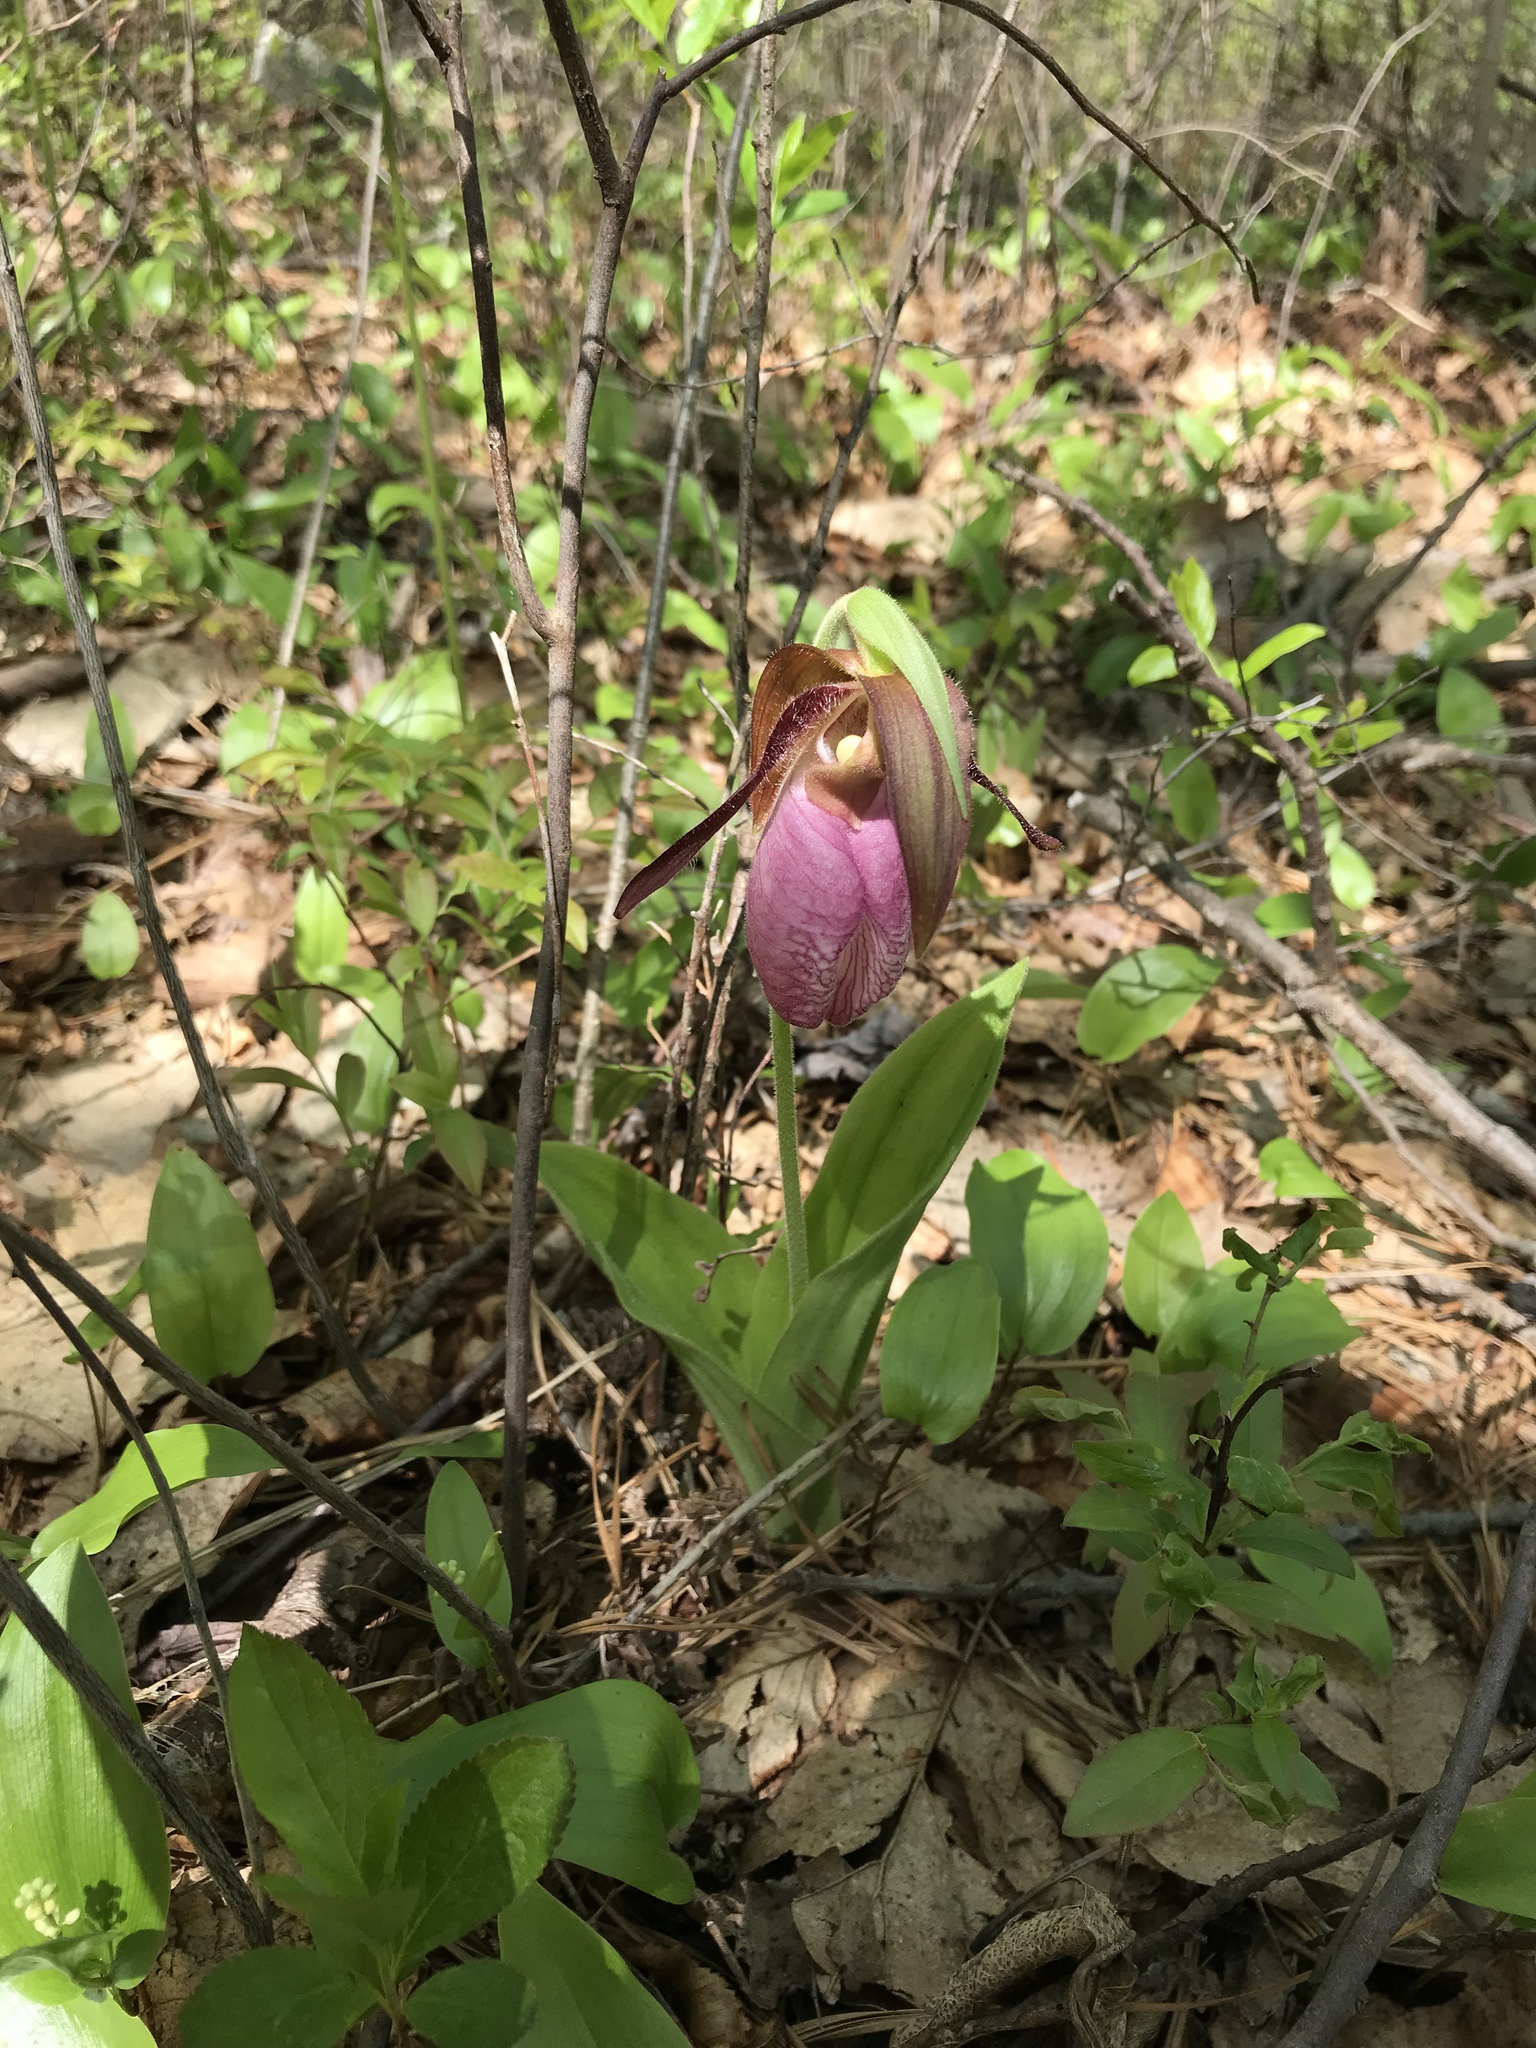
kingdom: Plantae
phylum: Tracheophyta
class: Liliopsida
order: Asparagales
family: Orchidaceae
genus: Cypripedium
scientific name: Cypripedium acaule
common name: Pink lady's-slipper
